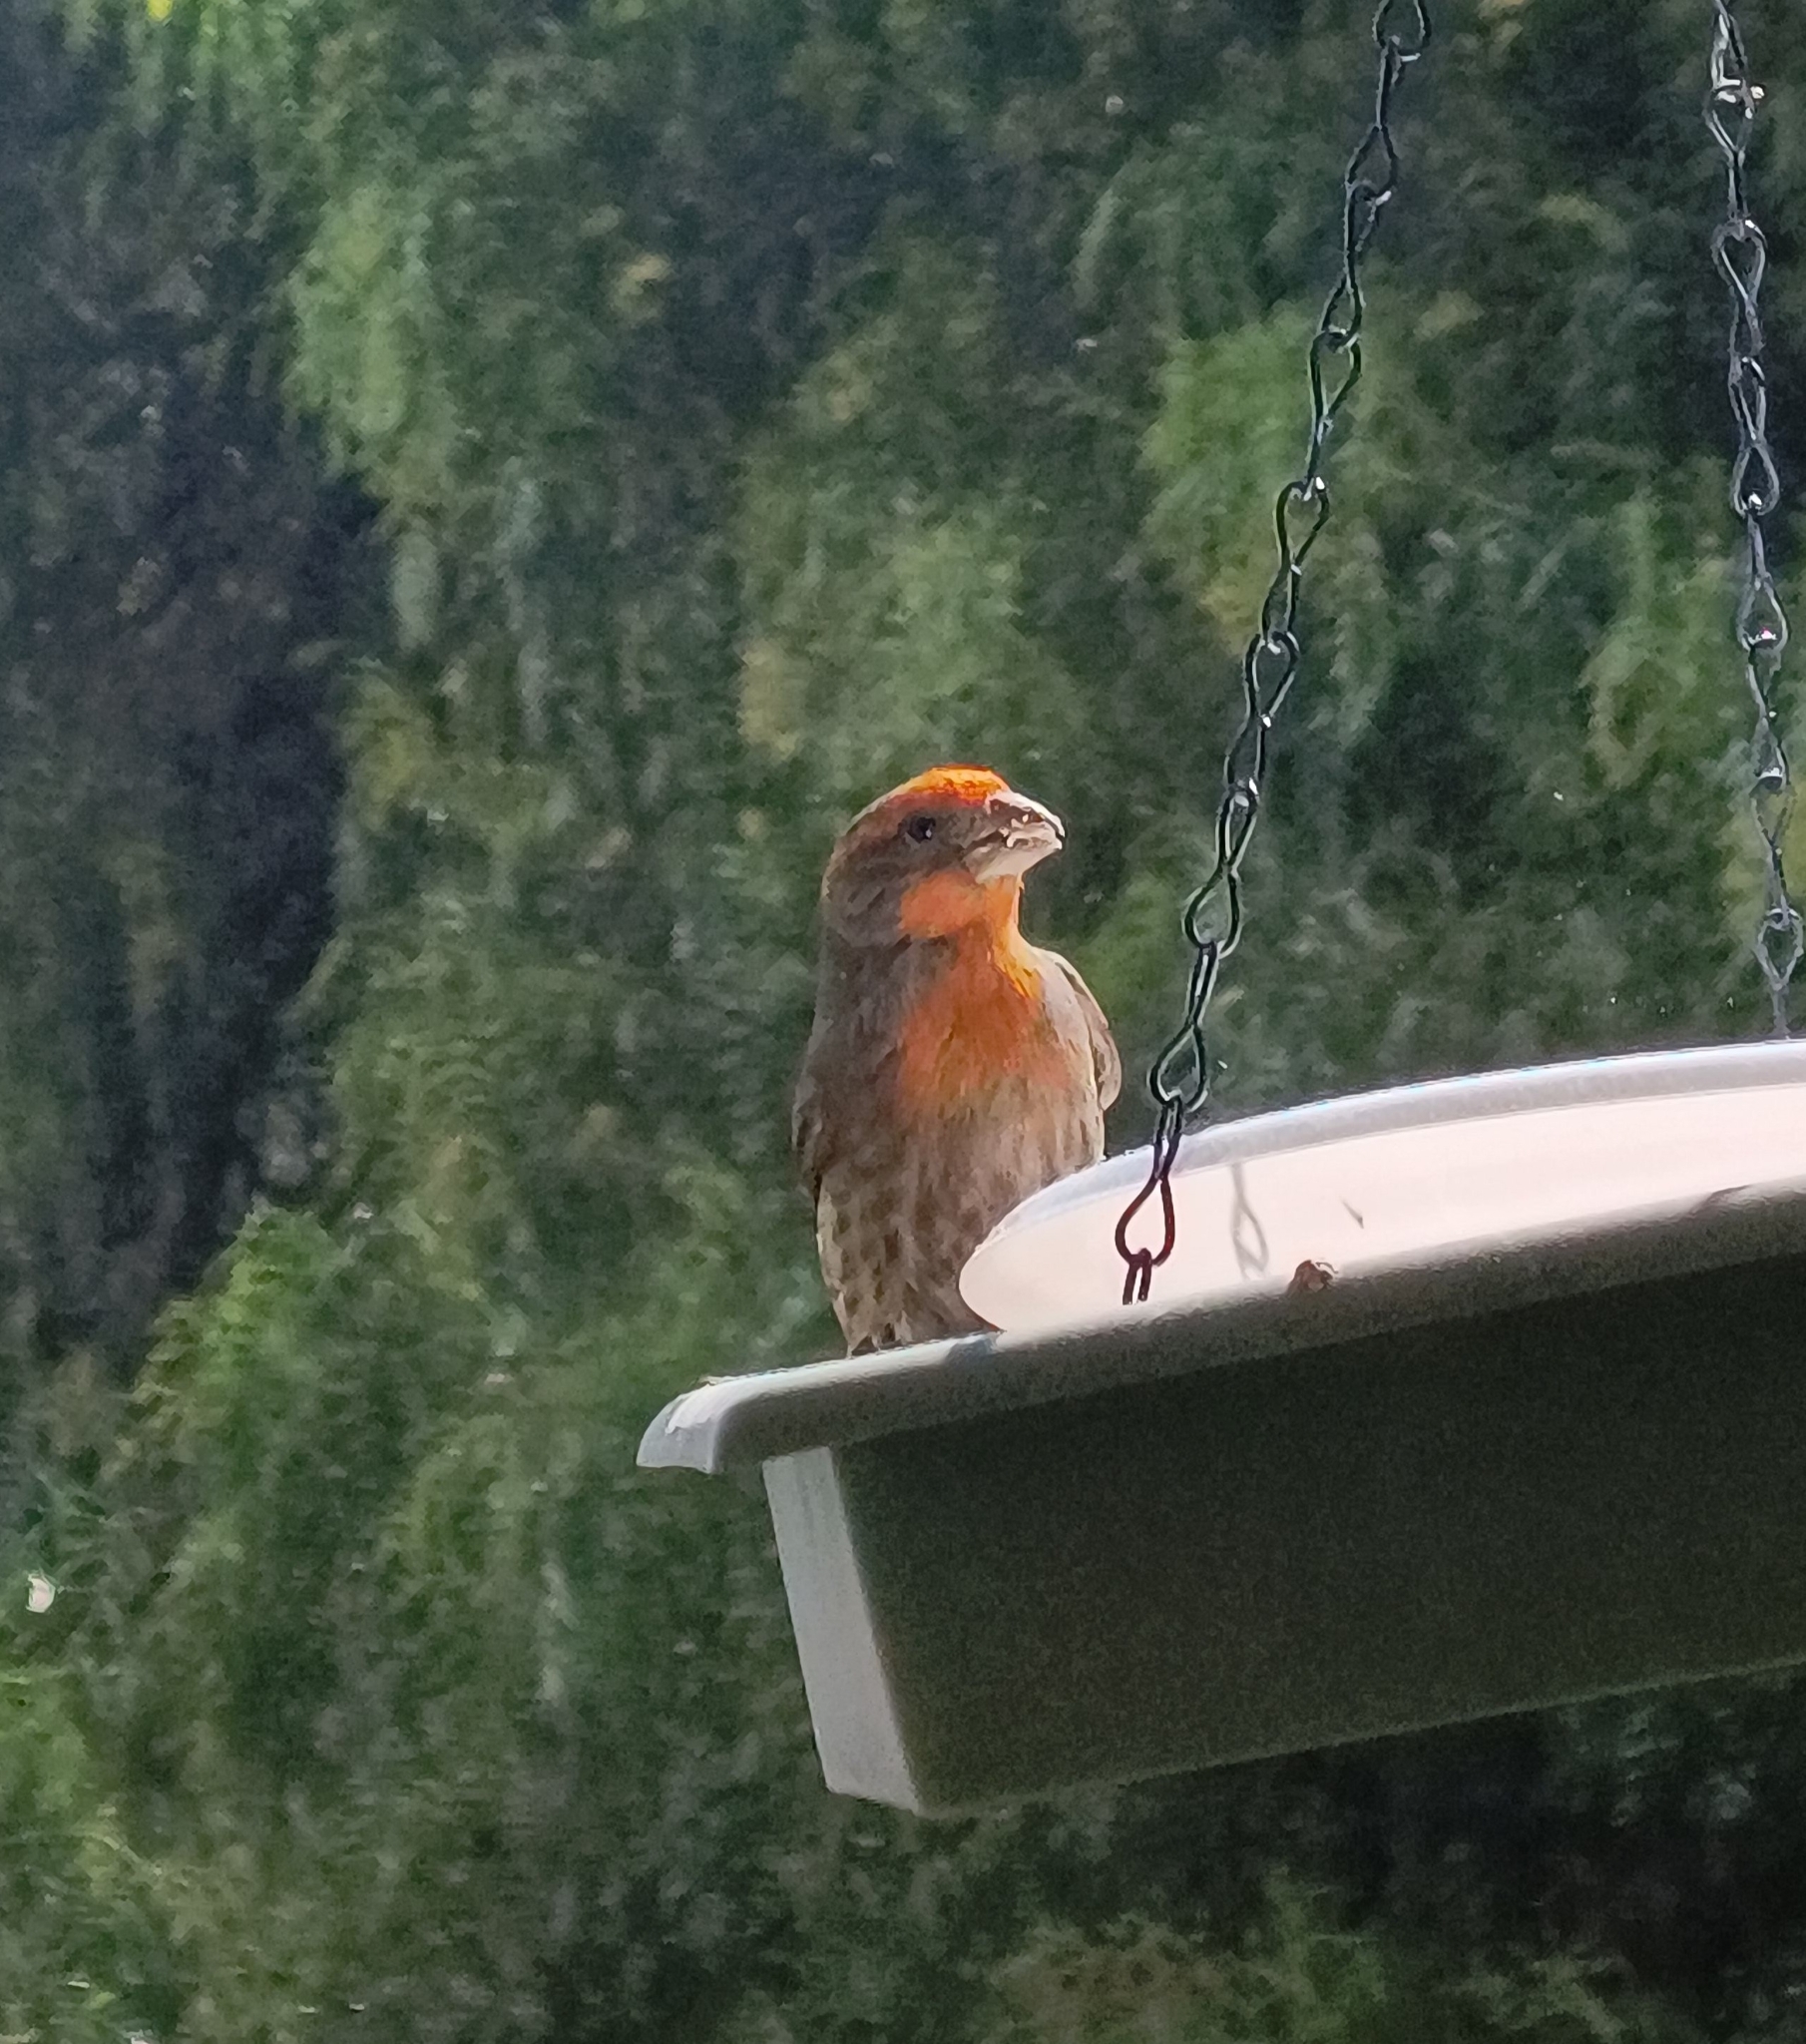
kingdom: Animalia
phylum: Chordata
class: Aves
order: Passeriformes
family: Fringillidae
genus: Haemorhous
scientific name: Haemorhous mexicanus
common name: House finch
